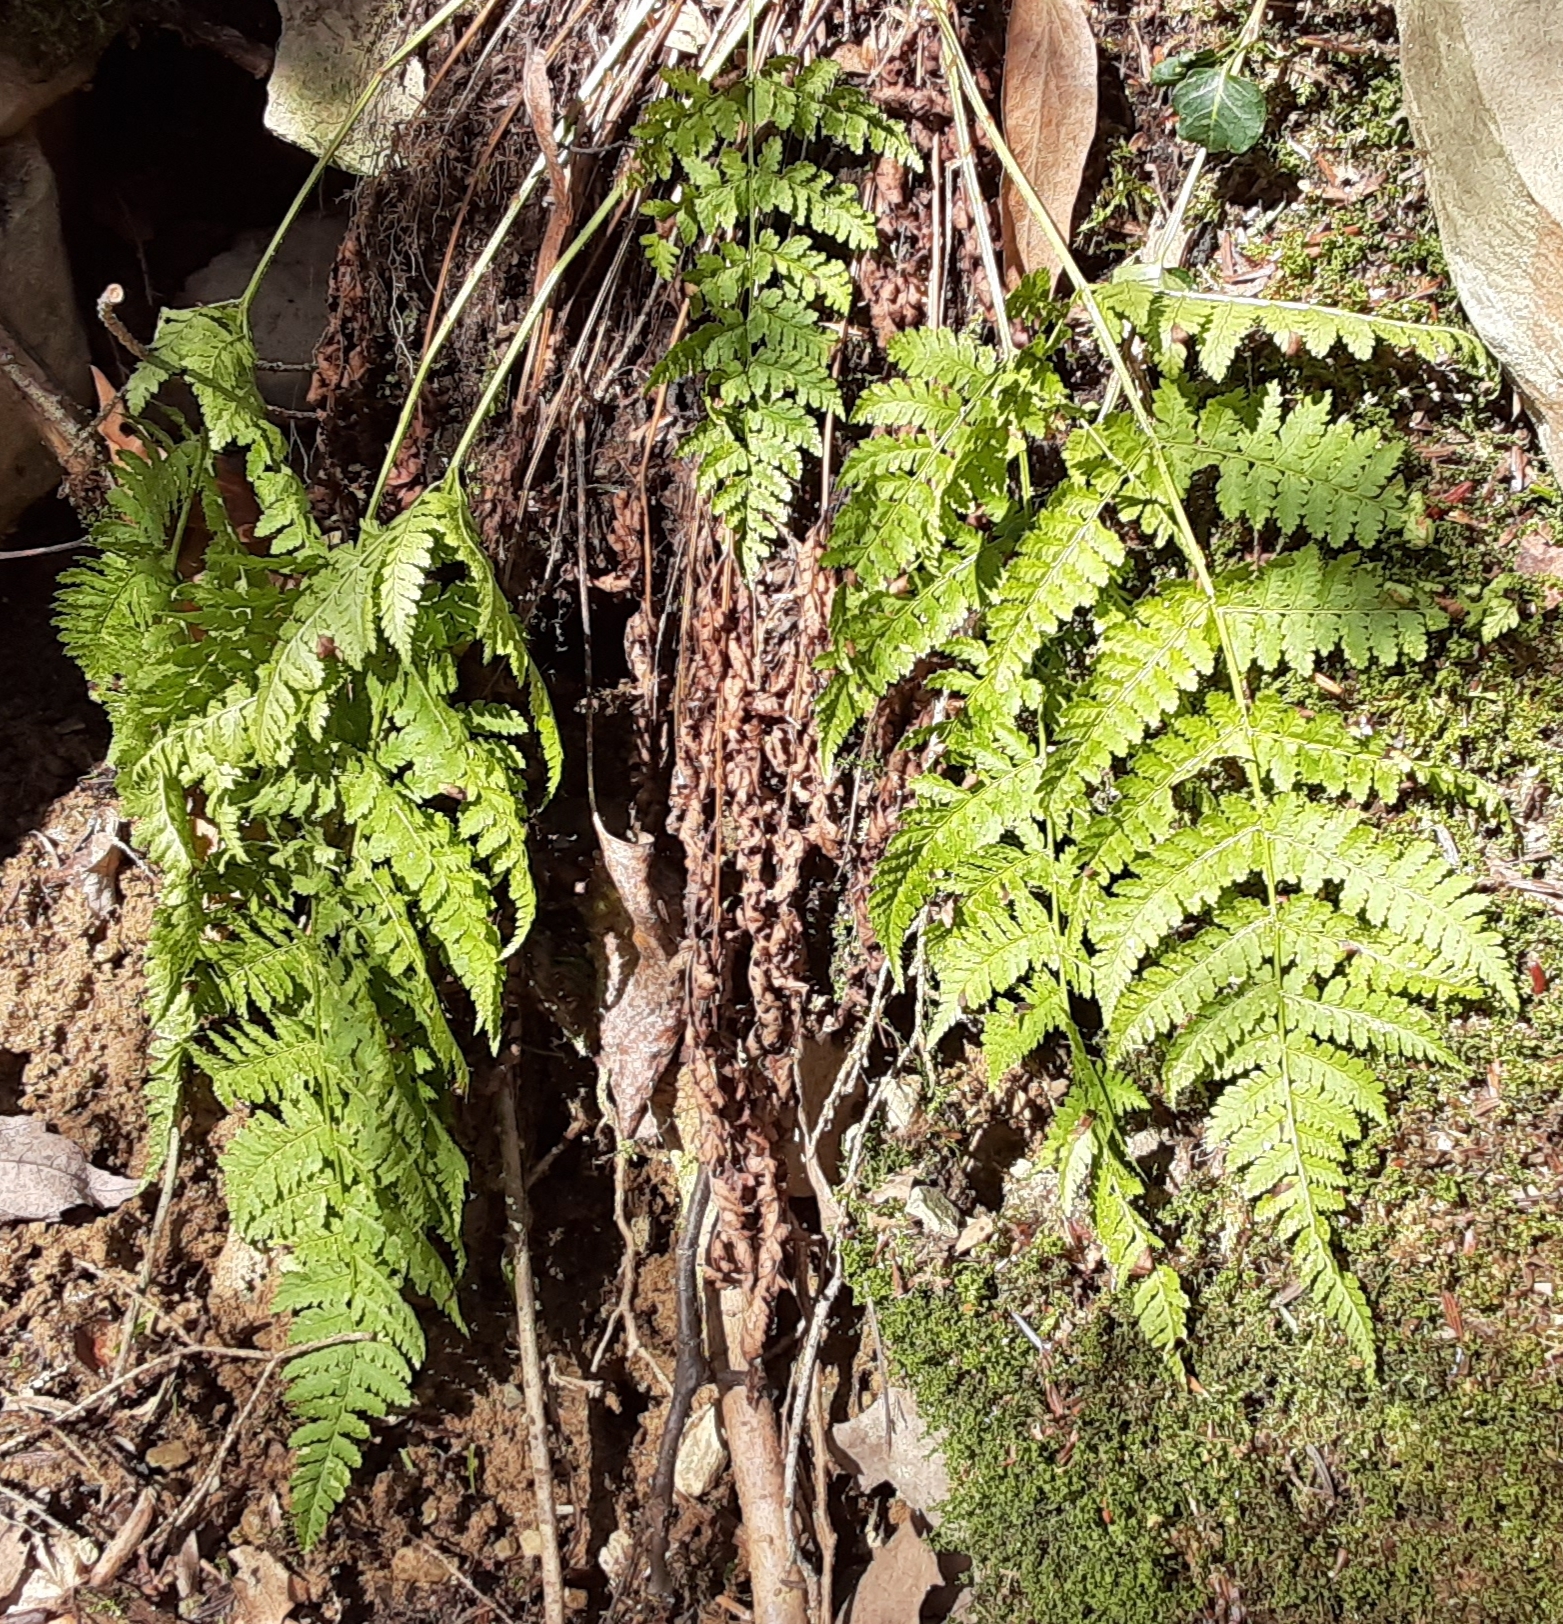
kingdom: Plantae
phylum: Tracheophyta
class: Polypodiopsida
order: Polypodiales
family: Dryopteridaceae
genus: Dryopteris
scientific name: Dryopteris intermedia
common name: Evergreen wood fern
